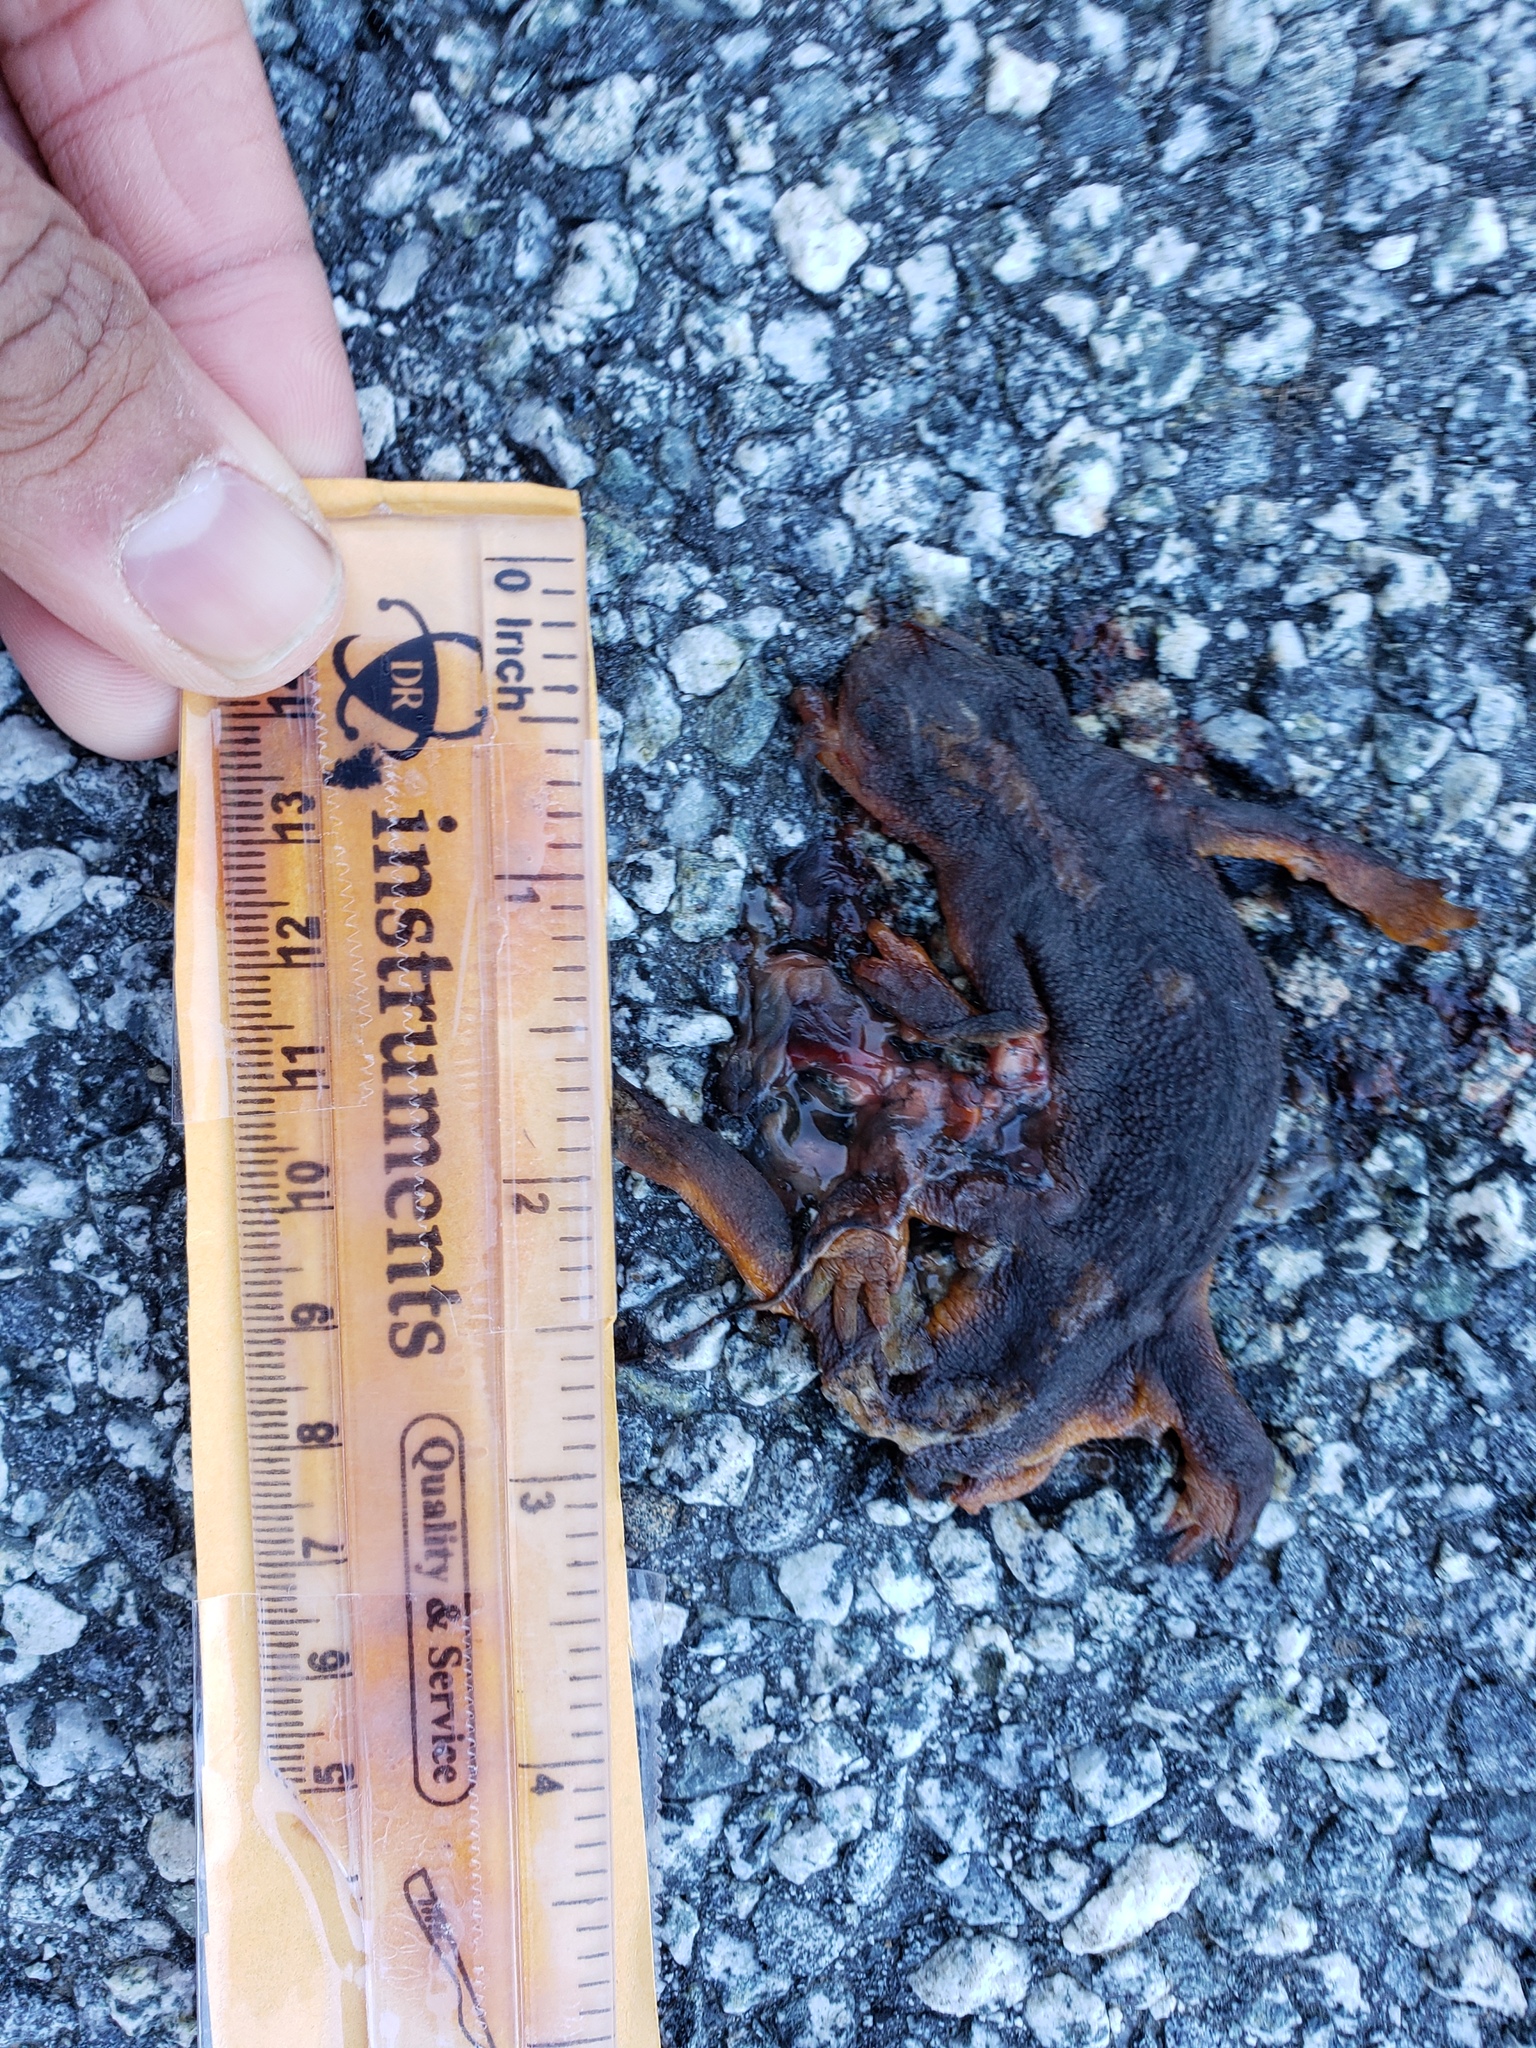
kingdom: Animalia
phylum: Chordata
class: Amphibia
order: Caudata
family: Salamandridae
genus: Taricha
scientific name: Taricha
